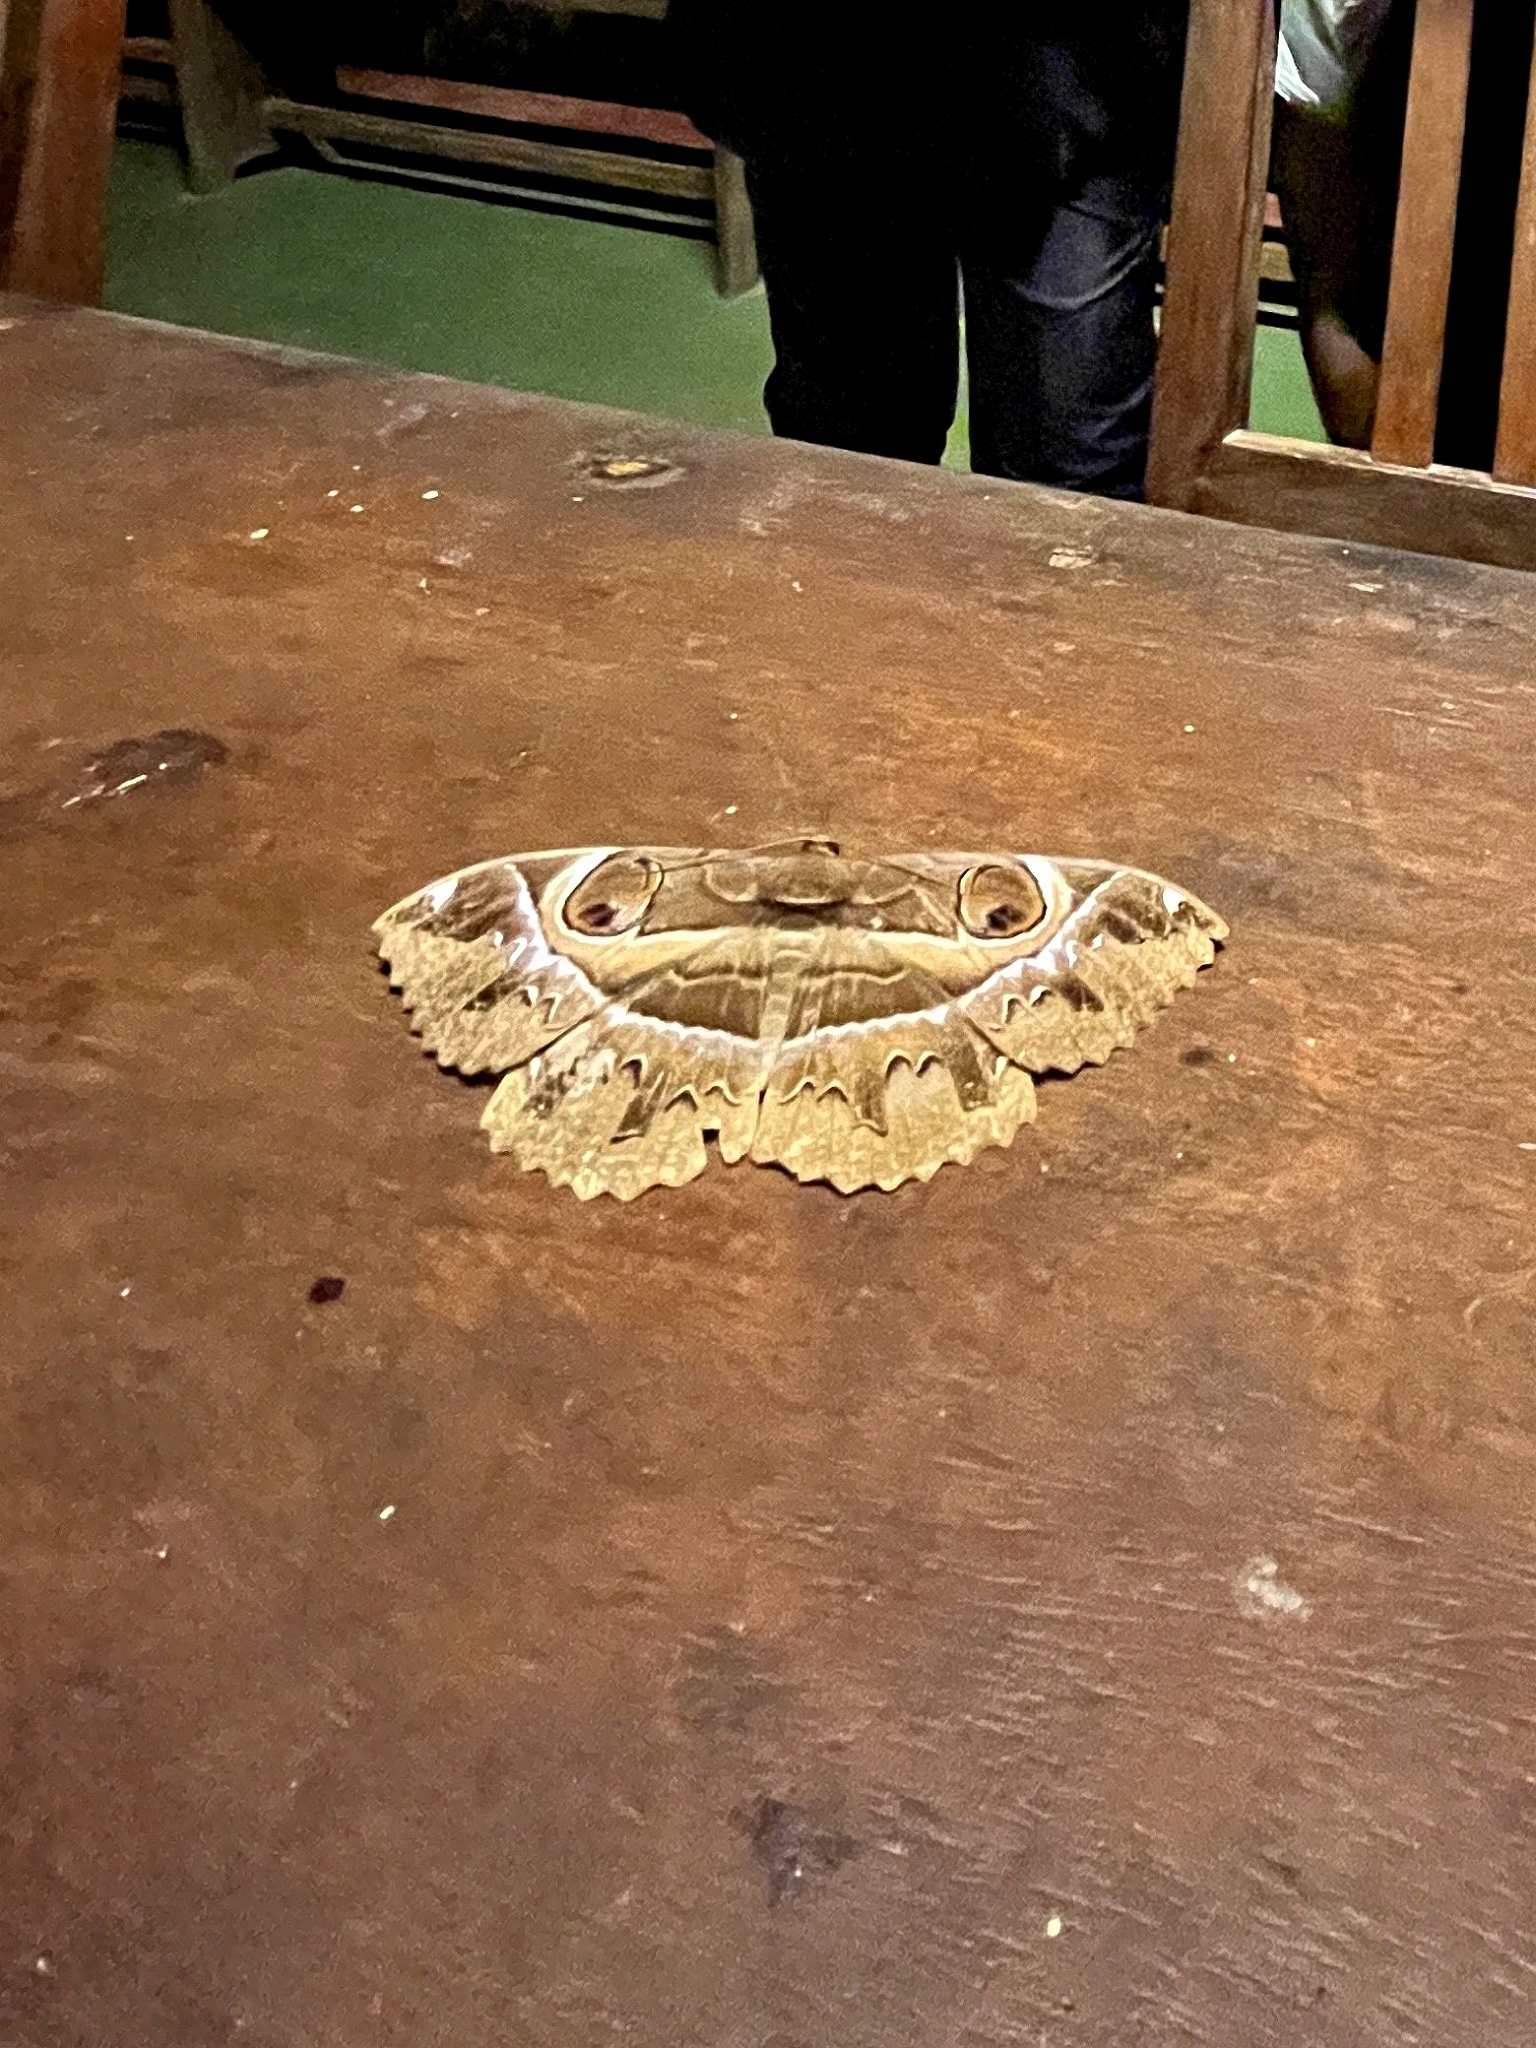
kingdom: Animalia
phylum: Arthropoda
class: Insecta
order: Lepidoptera
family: Erebidae
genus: Erebus
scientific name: Erebus ephesperis
